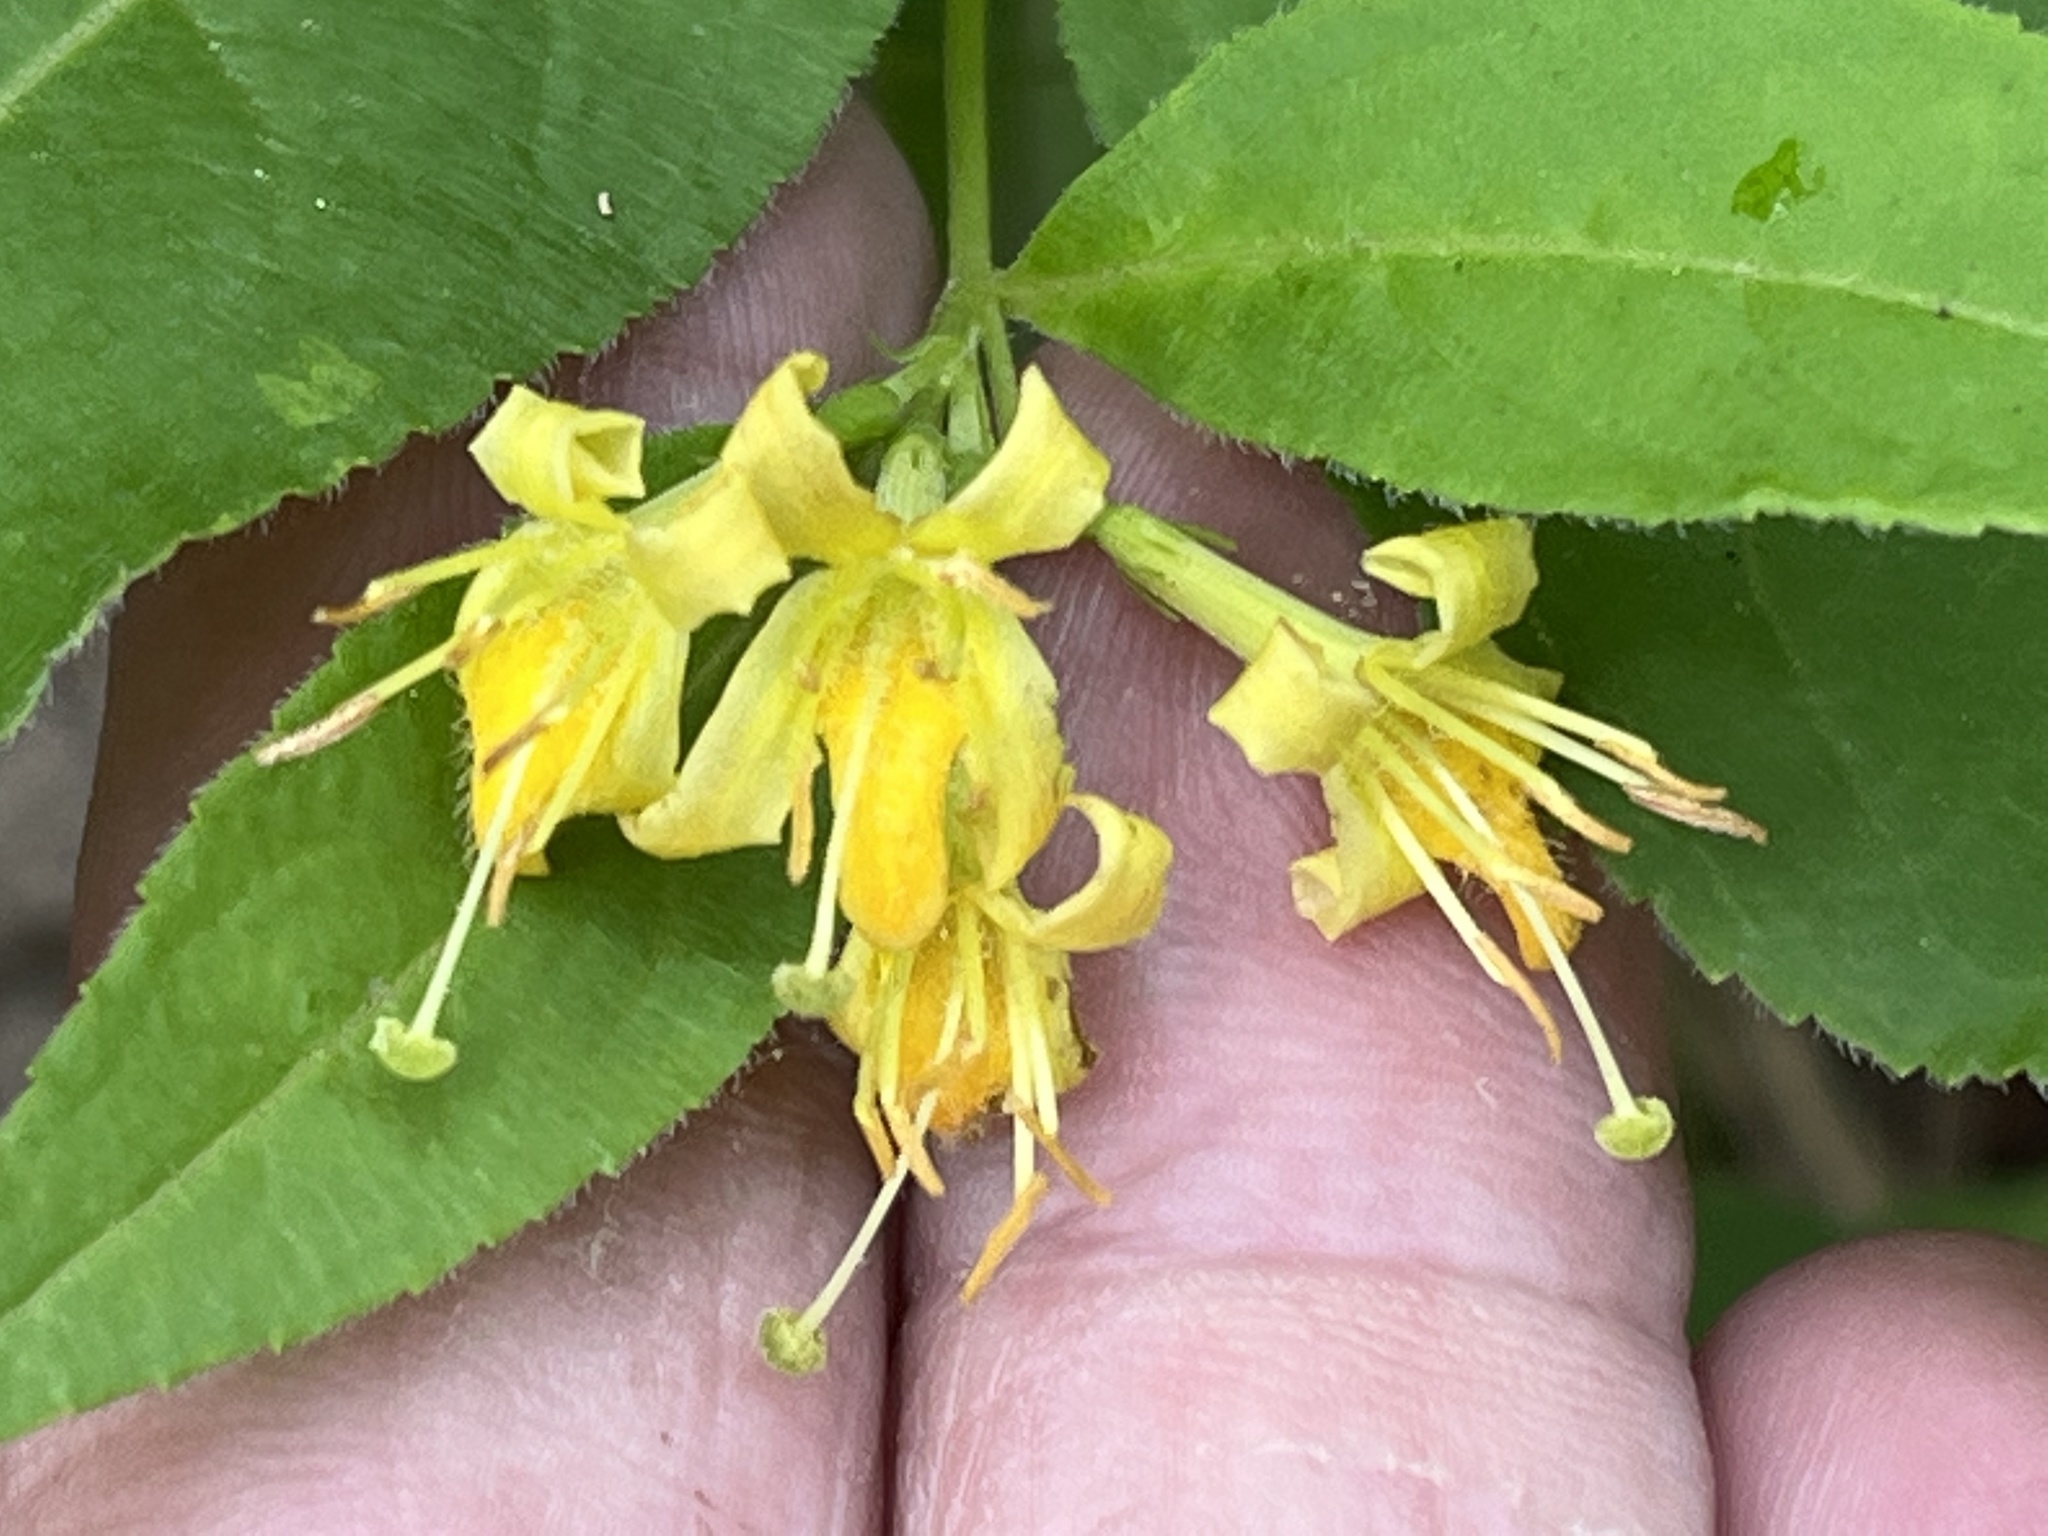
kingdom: Plantae
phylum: Tracheophyta
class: Magnoliopsida
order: Dipsacales
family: Caprifoliaceae
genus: Diervilla
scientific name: Diervilla lonicera
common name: Bush-honeysuckle
